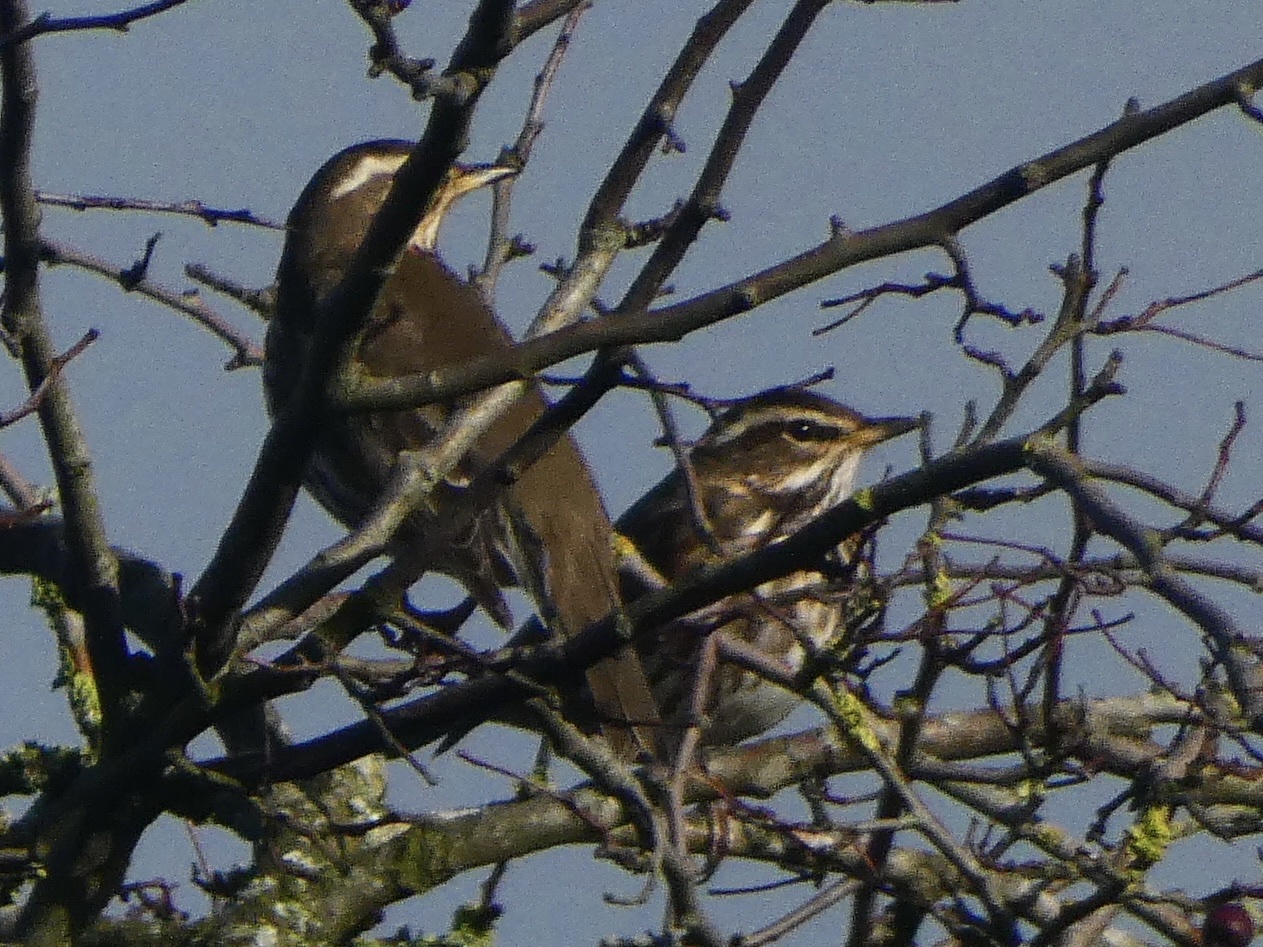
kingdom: Animalia
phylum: Chordata
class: Aves
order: Passeriformes
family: Turdidae
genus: Turdus
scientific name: Turdus iliacus
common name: Redwing
